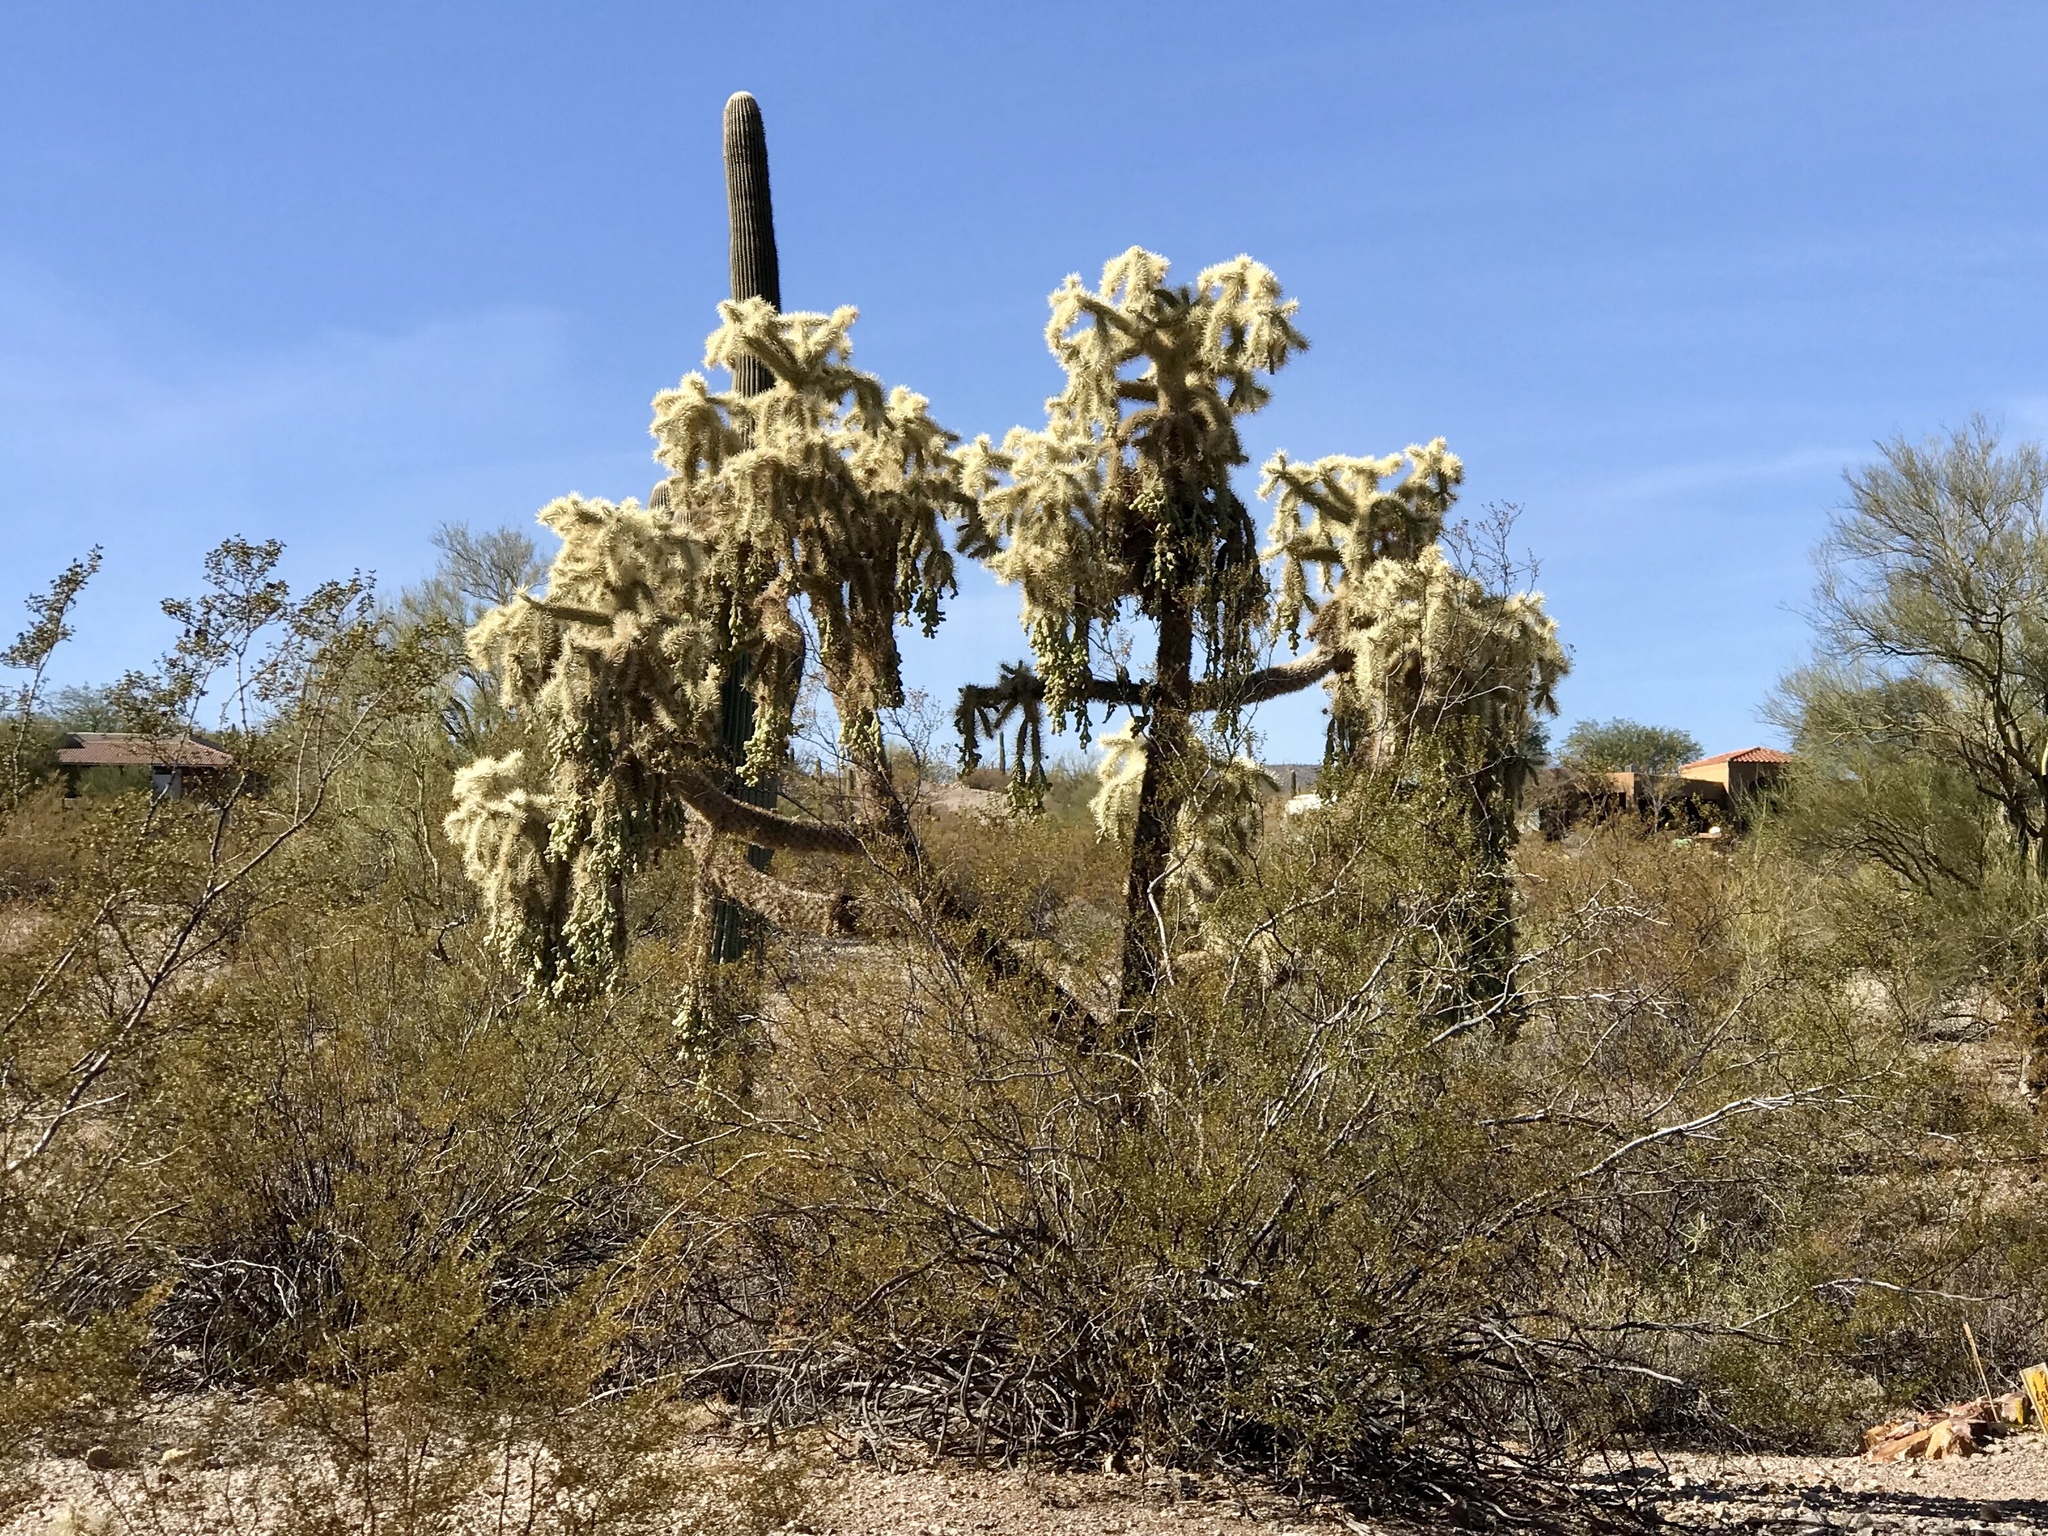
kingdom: Plantae
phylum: Tracheophyta
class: Magnoliopsida
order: Caryophyllales
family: Cactaceae
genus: Cylindropuntia
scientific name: Cylindropuntia fulgida
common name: Jumping cholla
